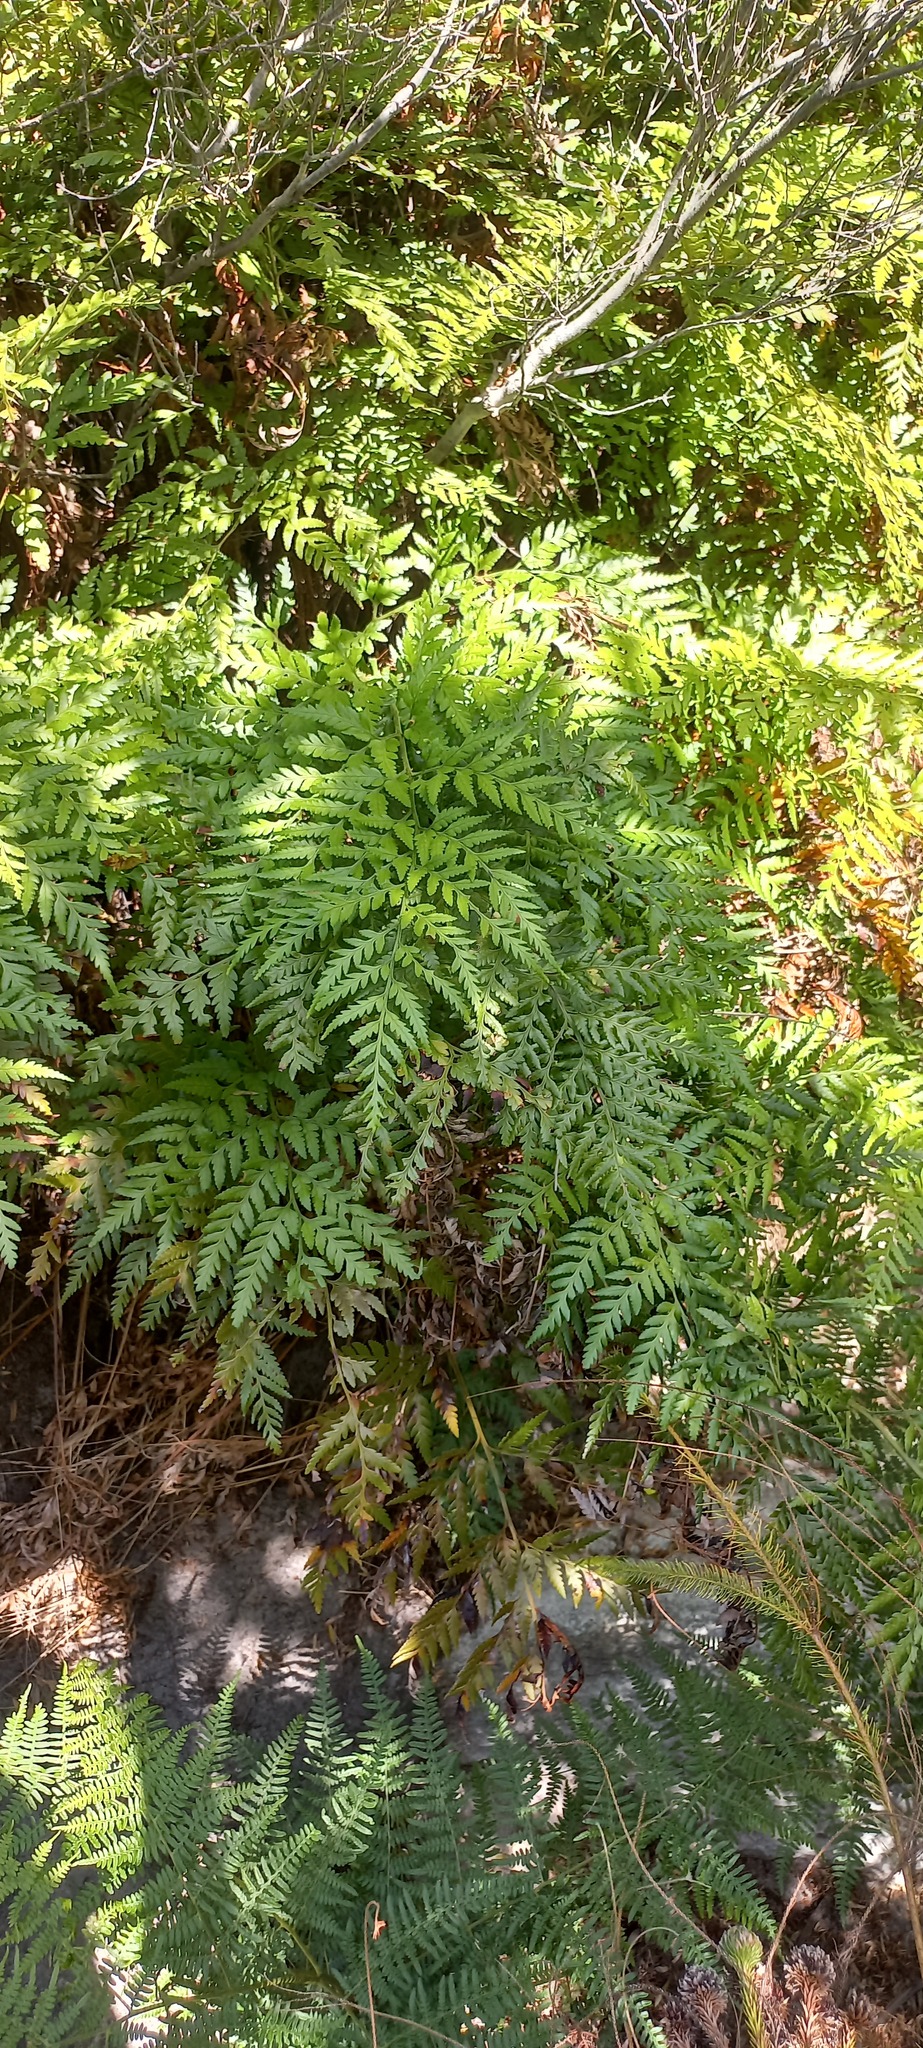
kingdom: Plantae
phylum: Tracheophyta
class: Polypodiopsida
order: Polypodiales
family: Dryopteridaceae
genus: Rumohra
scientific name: Rumohra adiantiformis
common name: Leather fern
